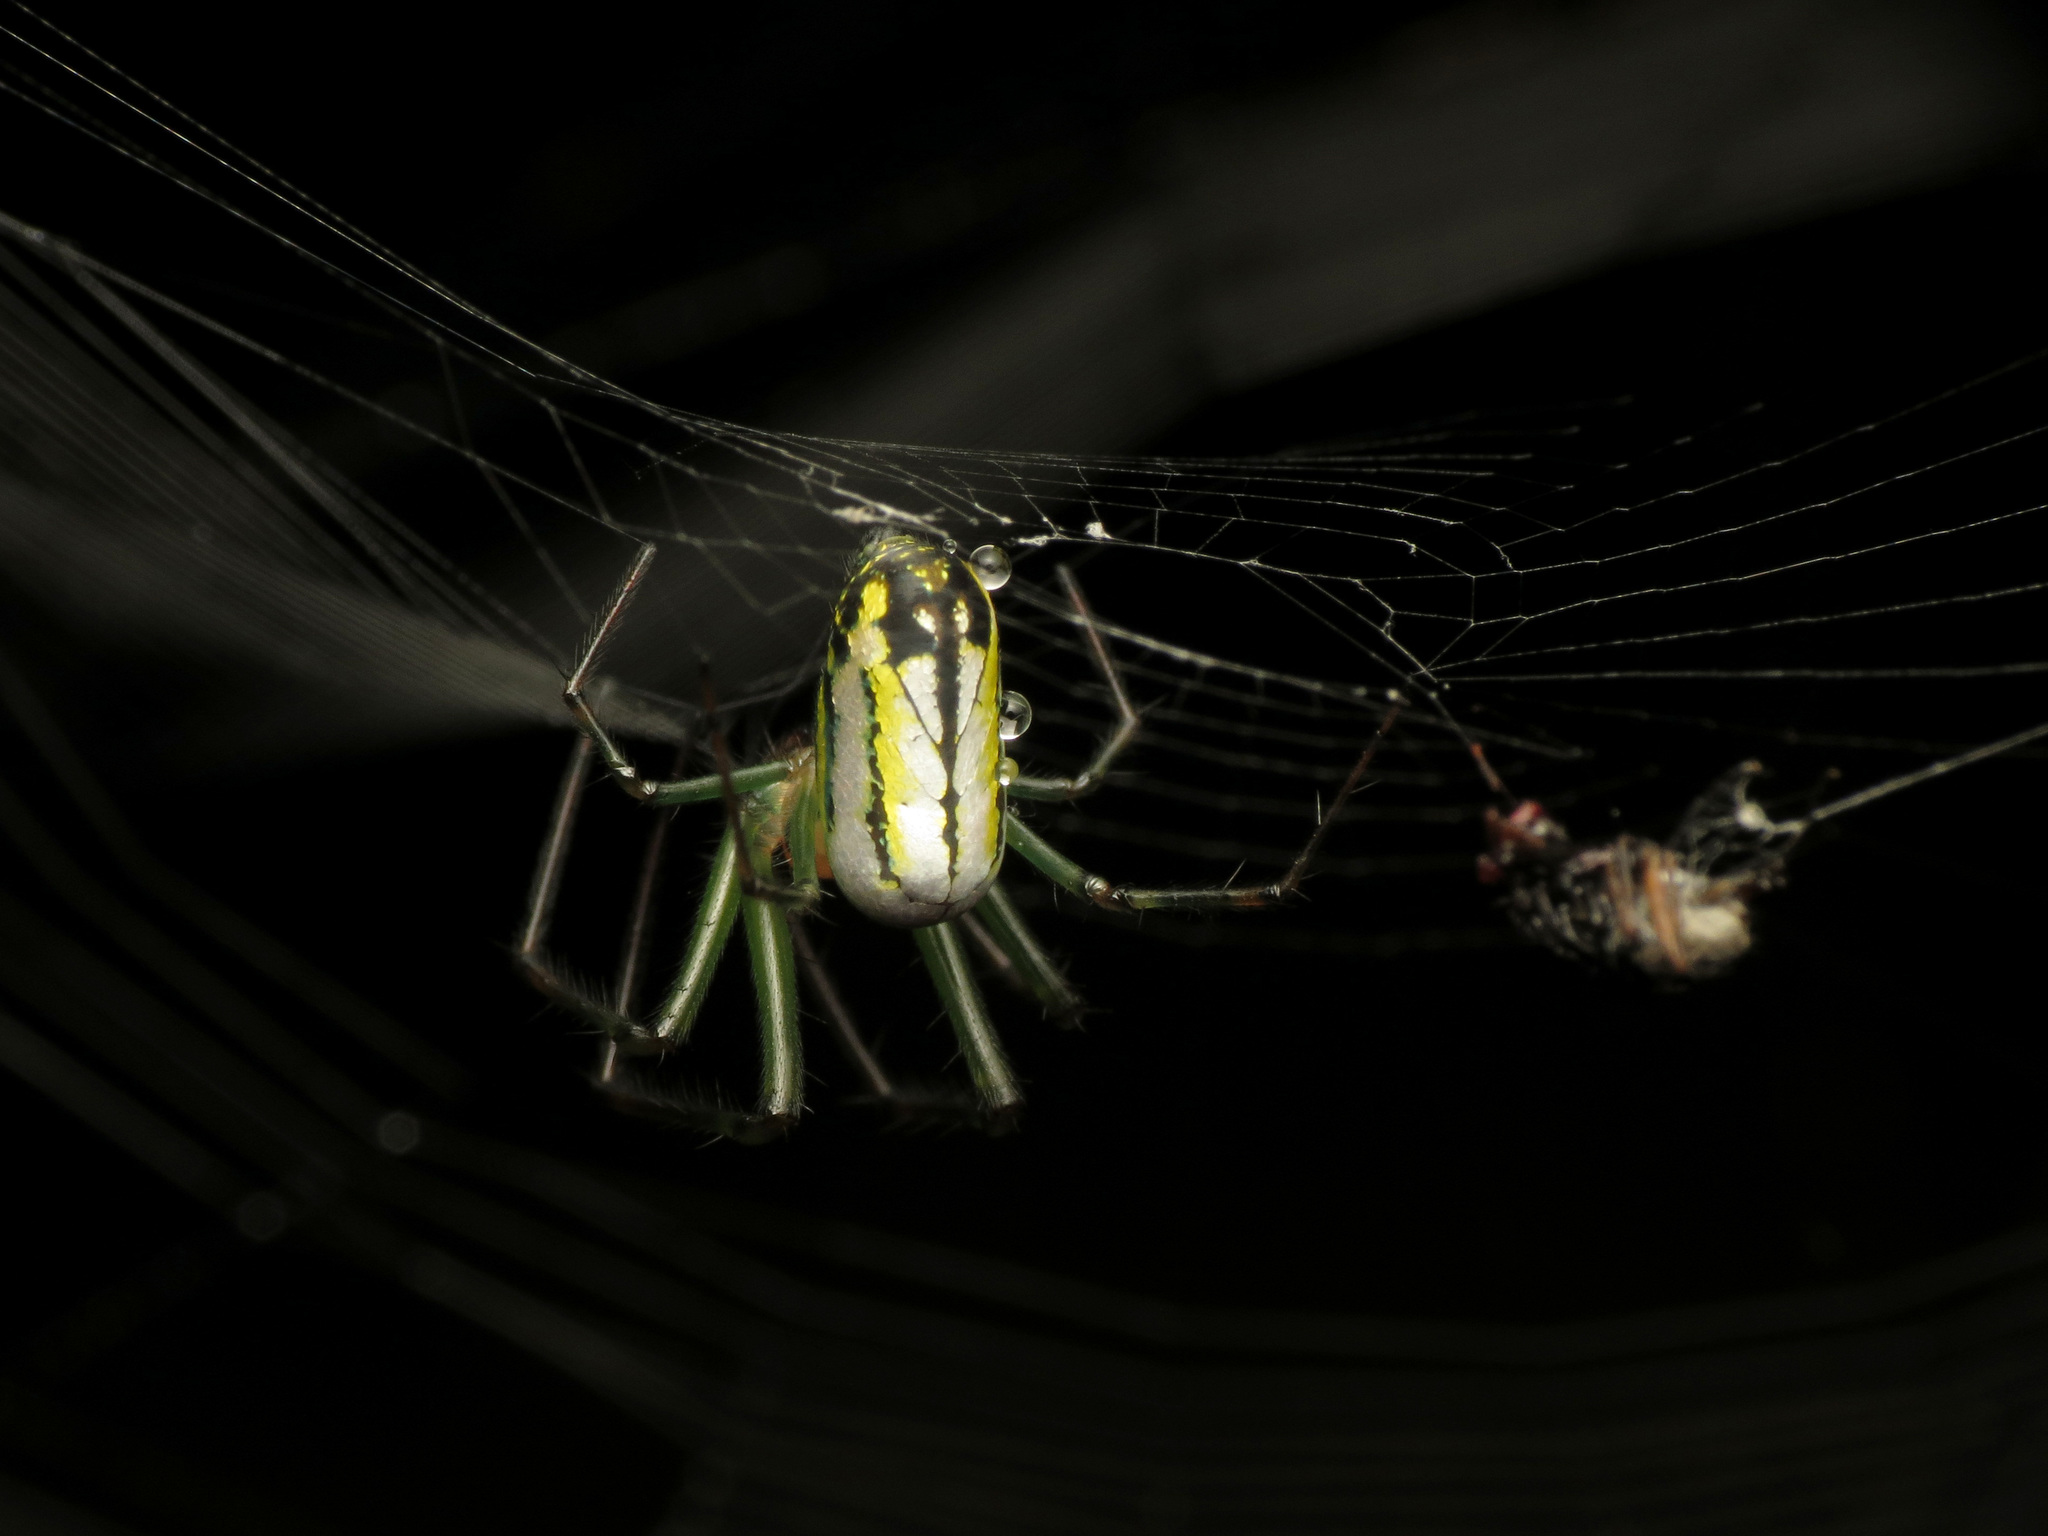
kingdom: Animalia
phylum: Arthropoda
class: Arachnida
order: Araneae
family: Tetragnathidae
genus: Leucauge
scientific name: Leucauge venusta
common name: Longjawed orb weavers
